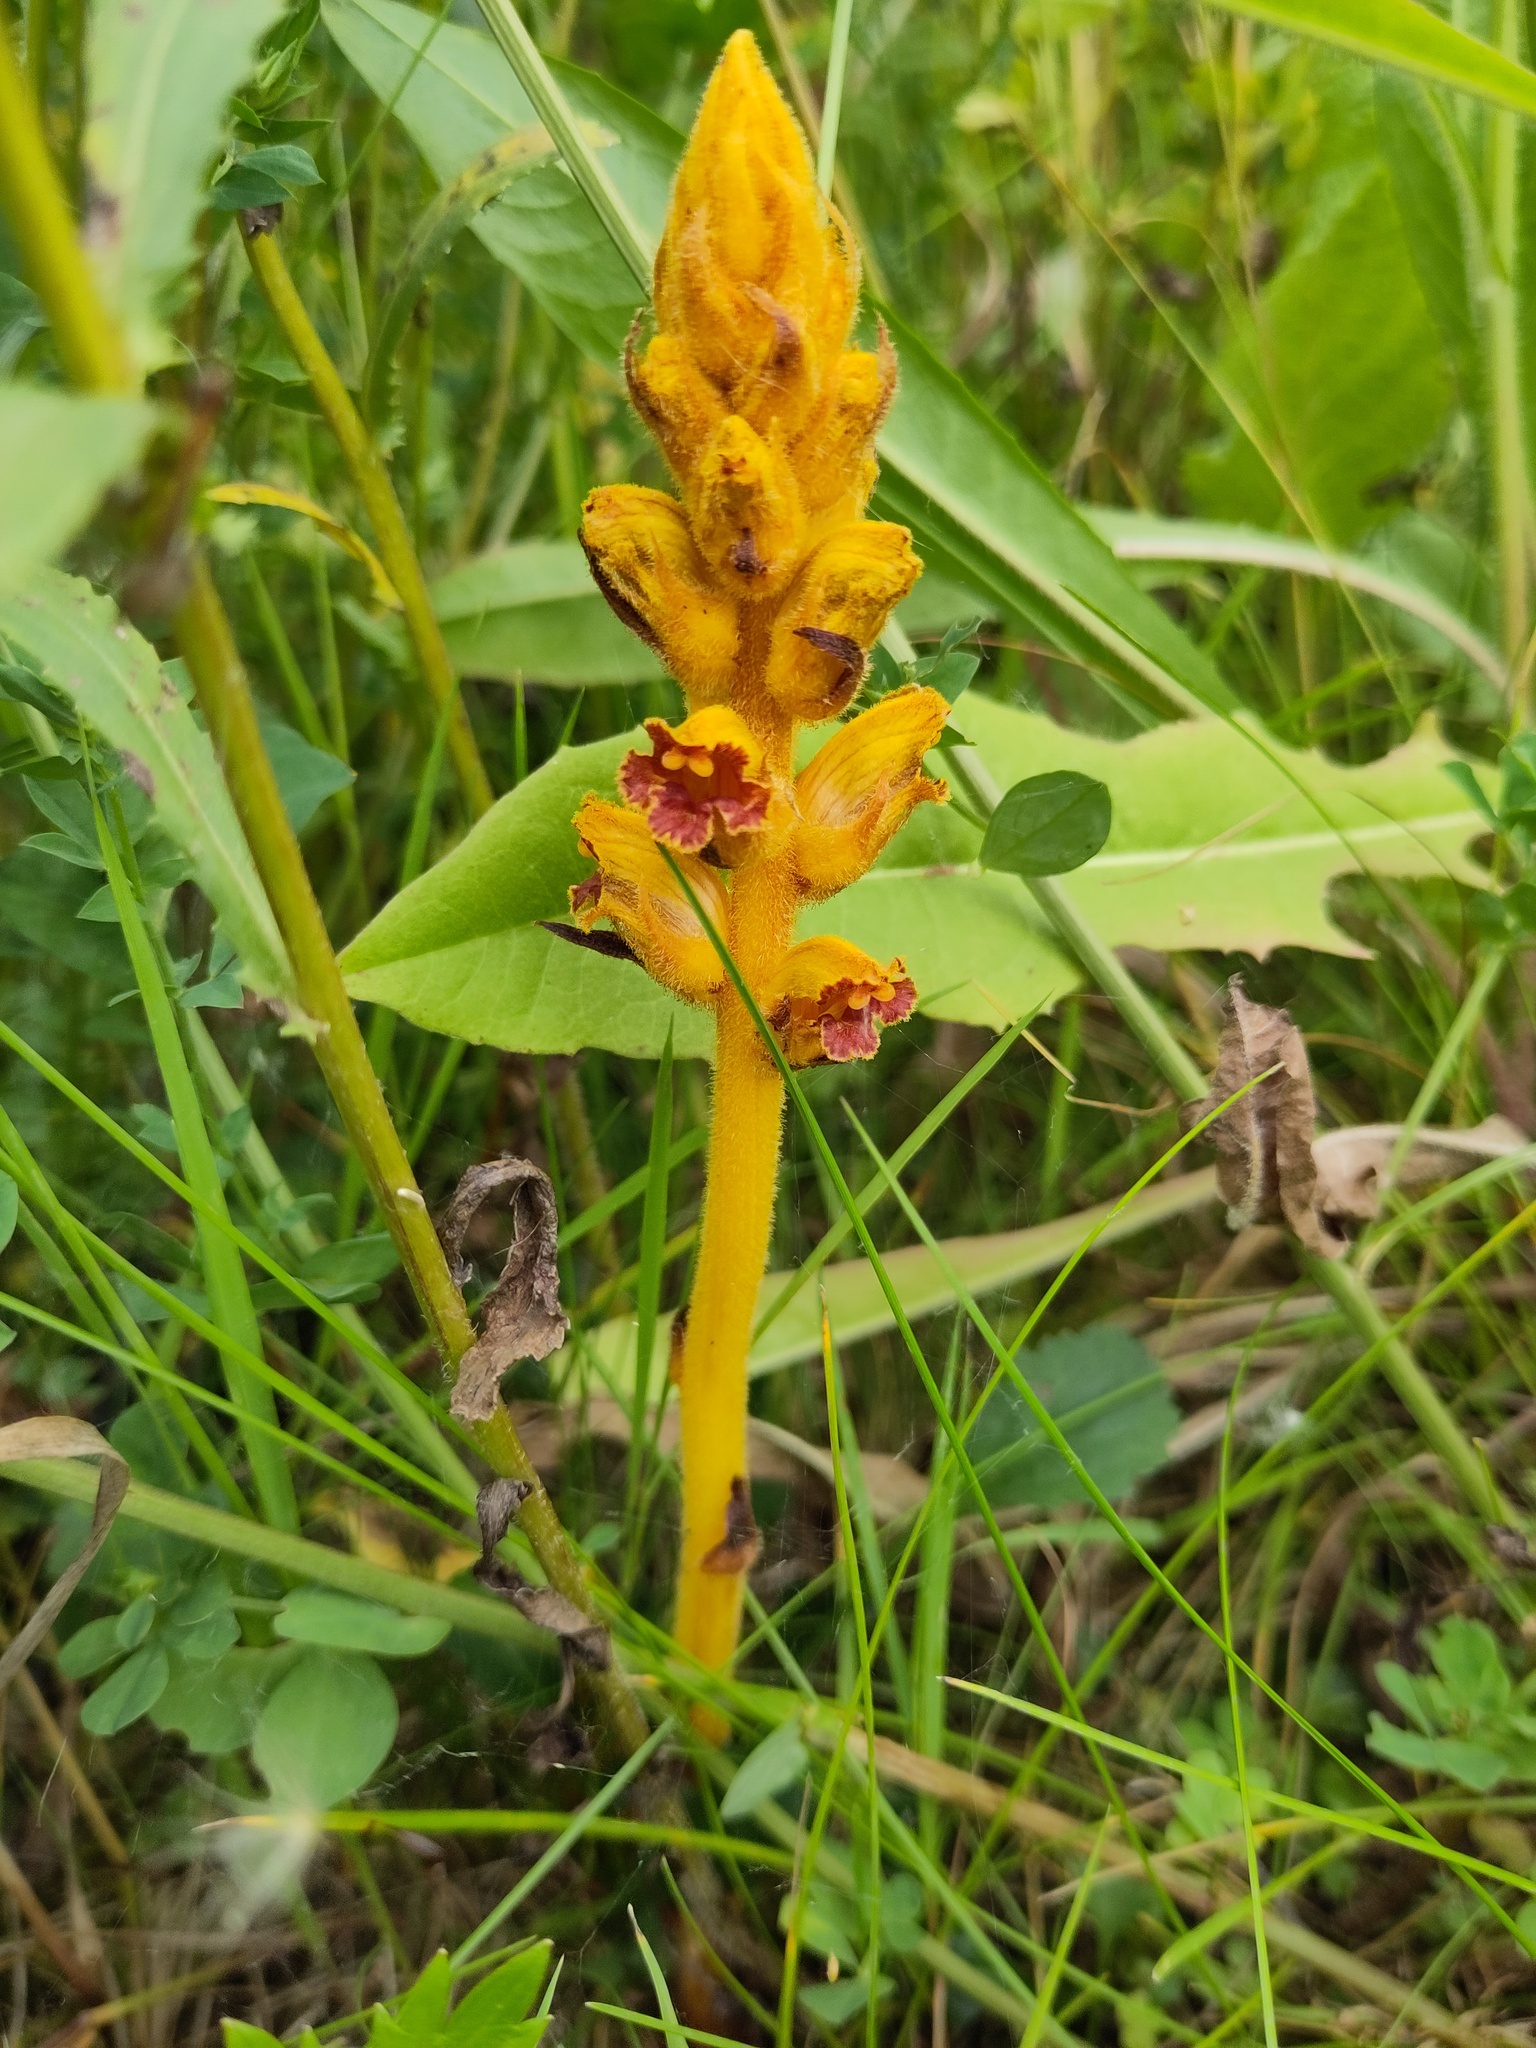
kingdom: Plantae
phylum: Tracheophyta
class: Magnoliopsida
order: Lamiales
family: Orobanchaceae
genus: Orobanche
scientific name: Orobanche gracilis
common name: Slender broomrape
